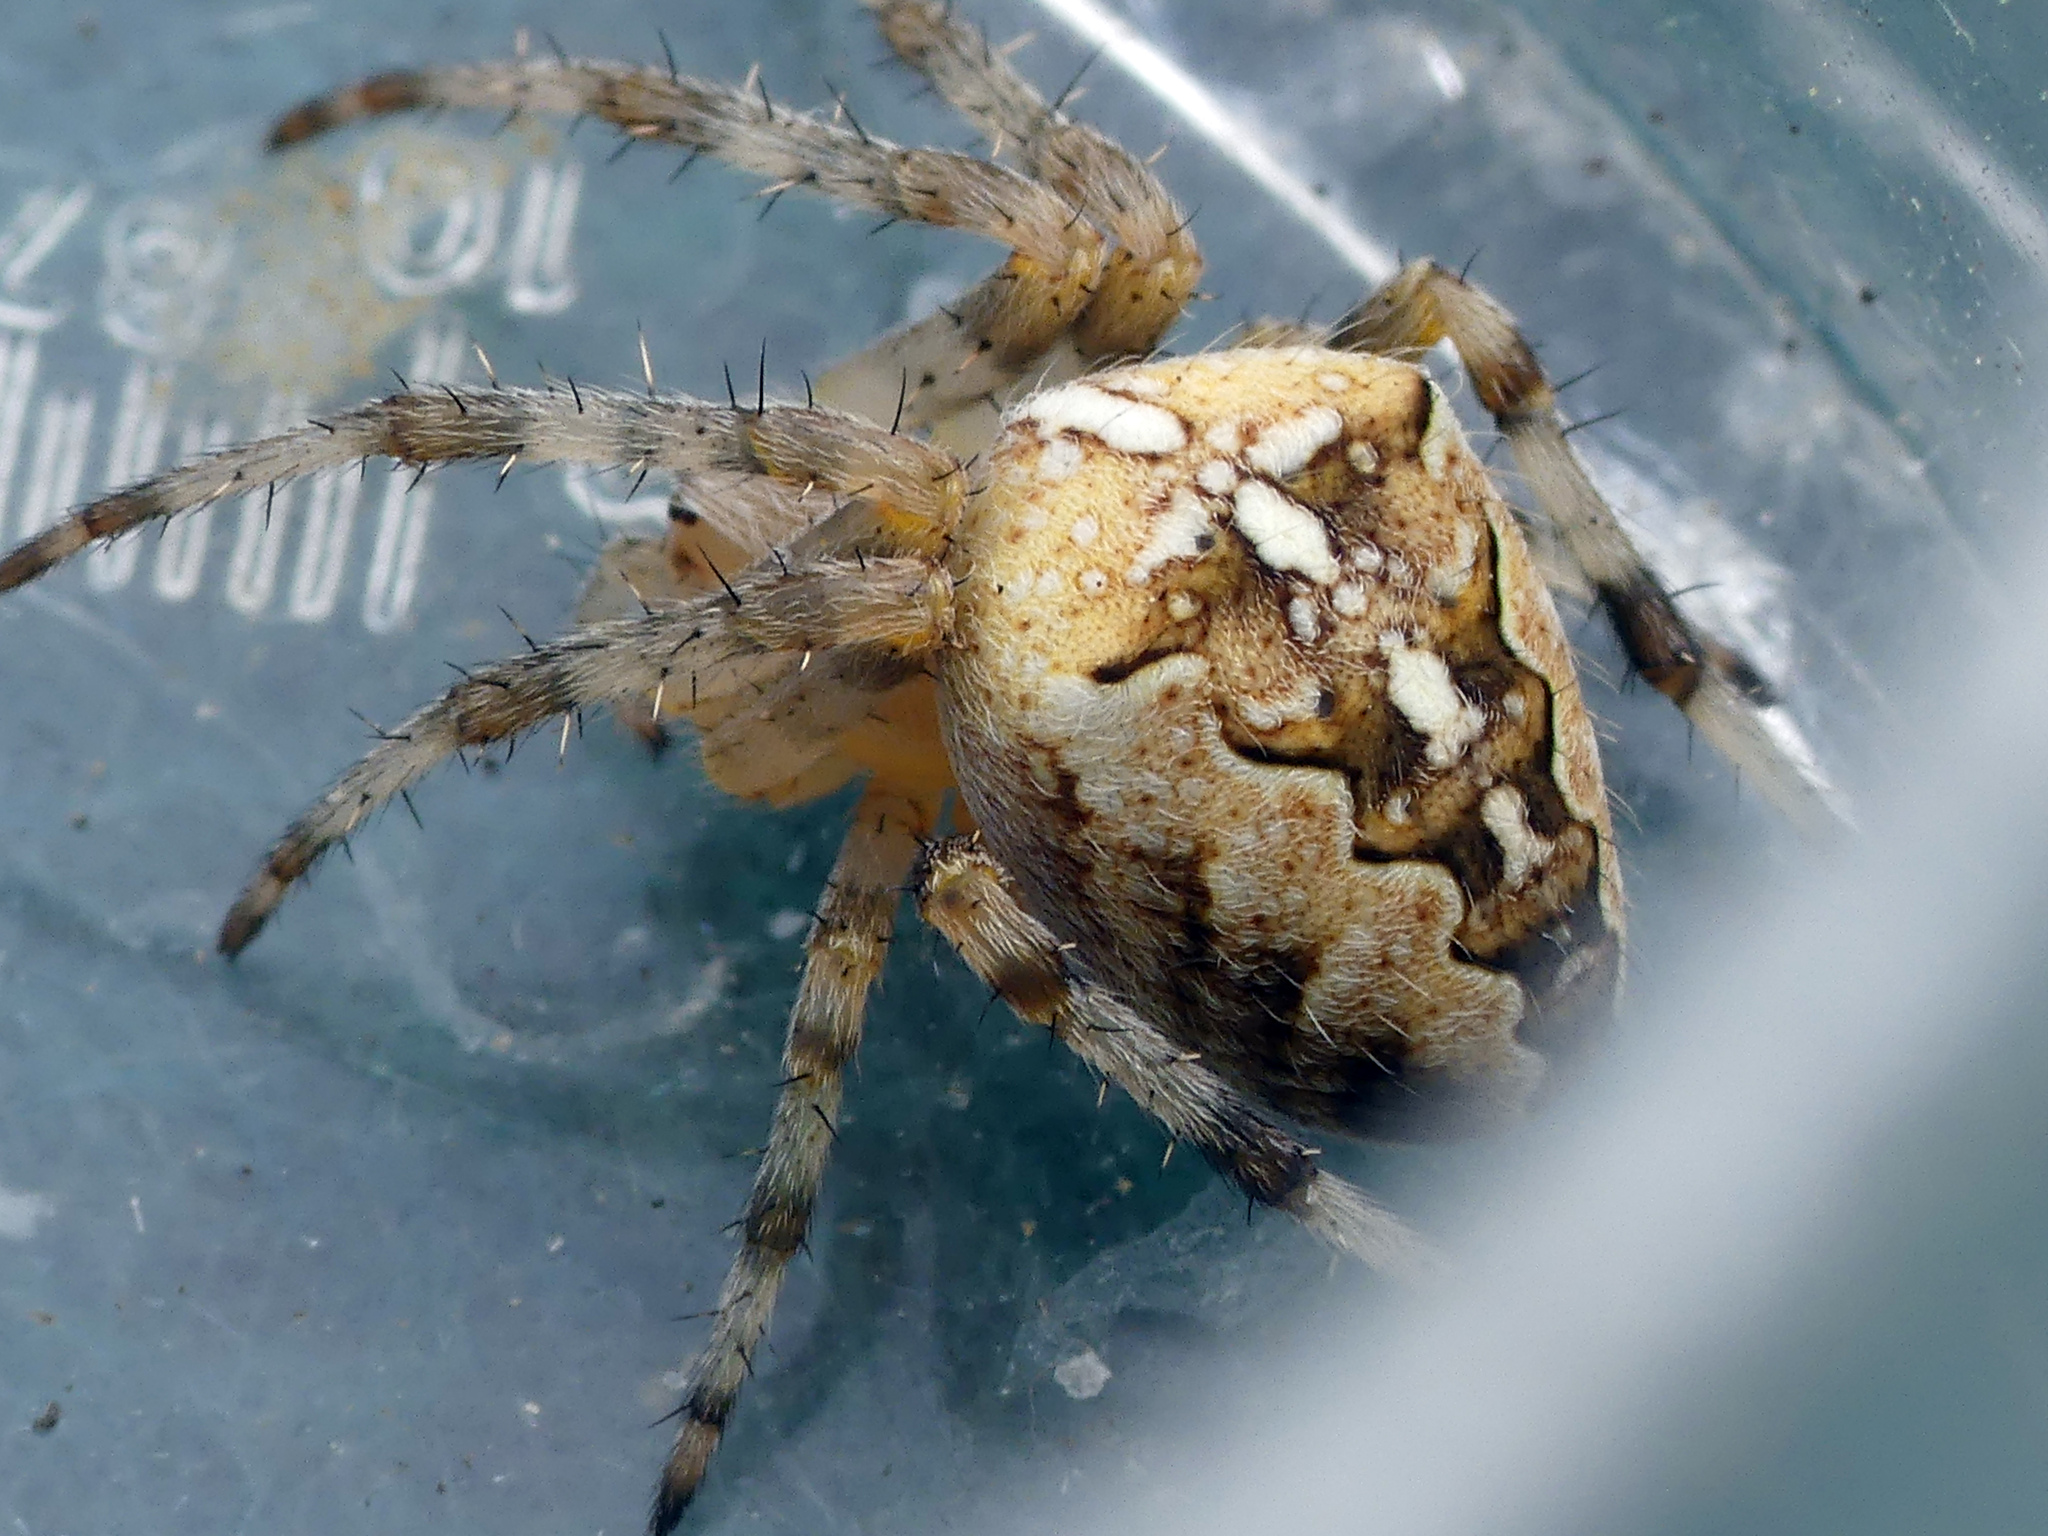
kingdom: Animalia
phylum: Arthropoda
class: Arachnida
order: Araneae
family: Araneidae
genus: Araneus
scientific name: Araneus diadematus
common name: Cross orbweaver
